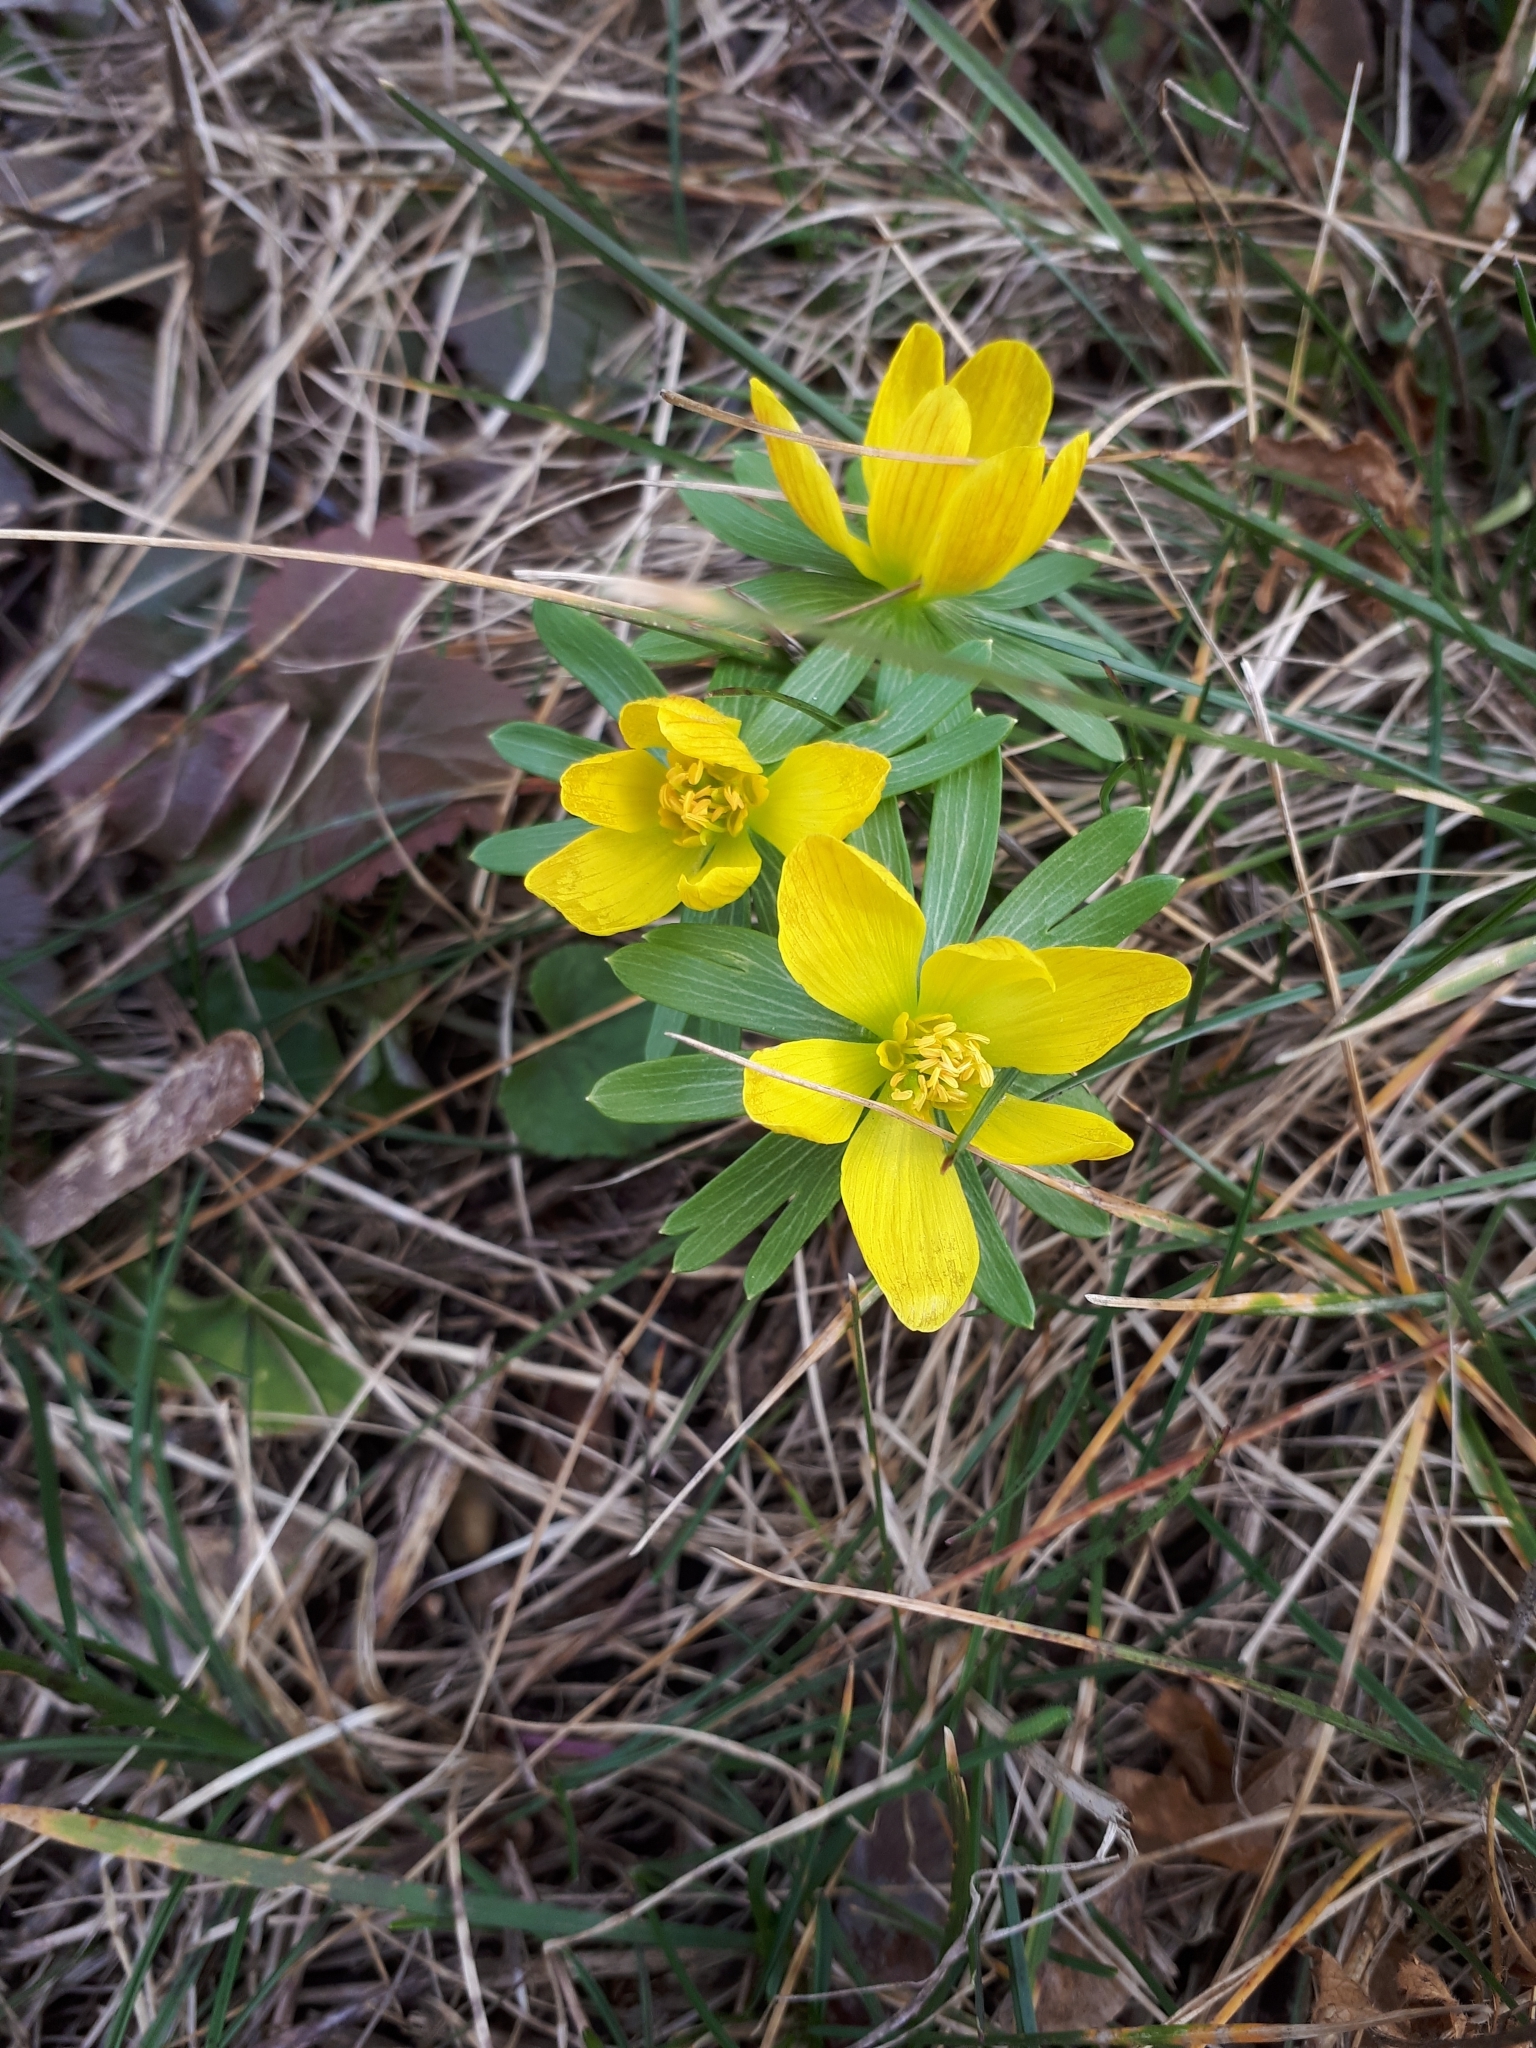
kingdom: Plantae
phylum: Tracheophyta
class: Magnoliopsida
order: Ranunculales
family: Ranunculaceae
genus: Eranthis
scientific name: Eranthis hyemalis
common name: Winter aconite
